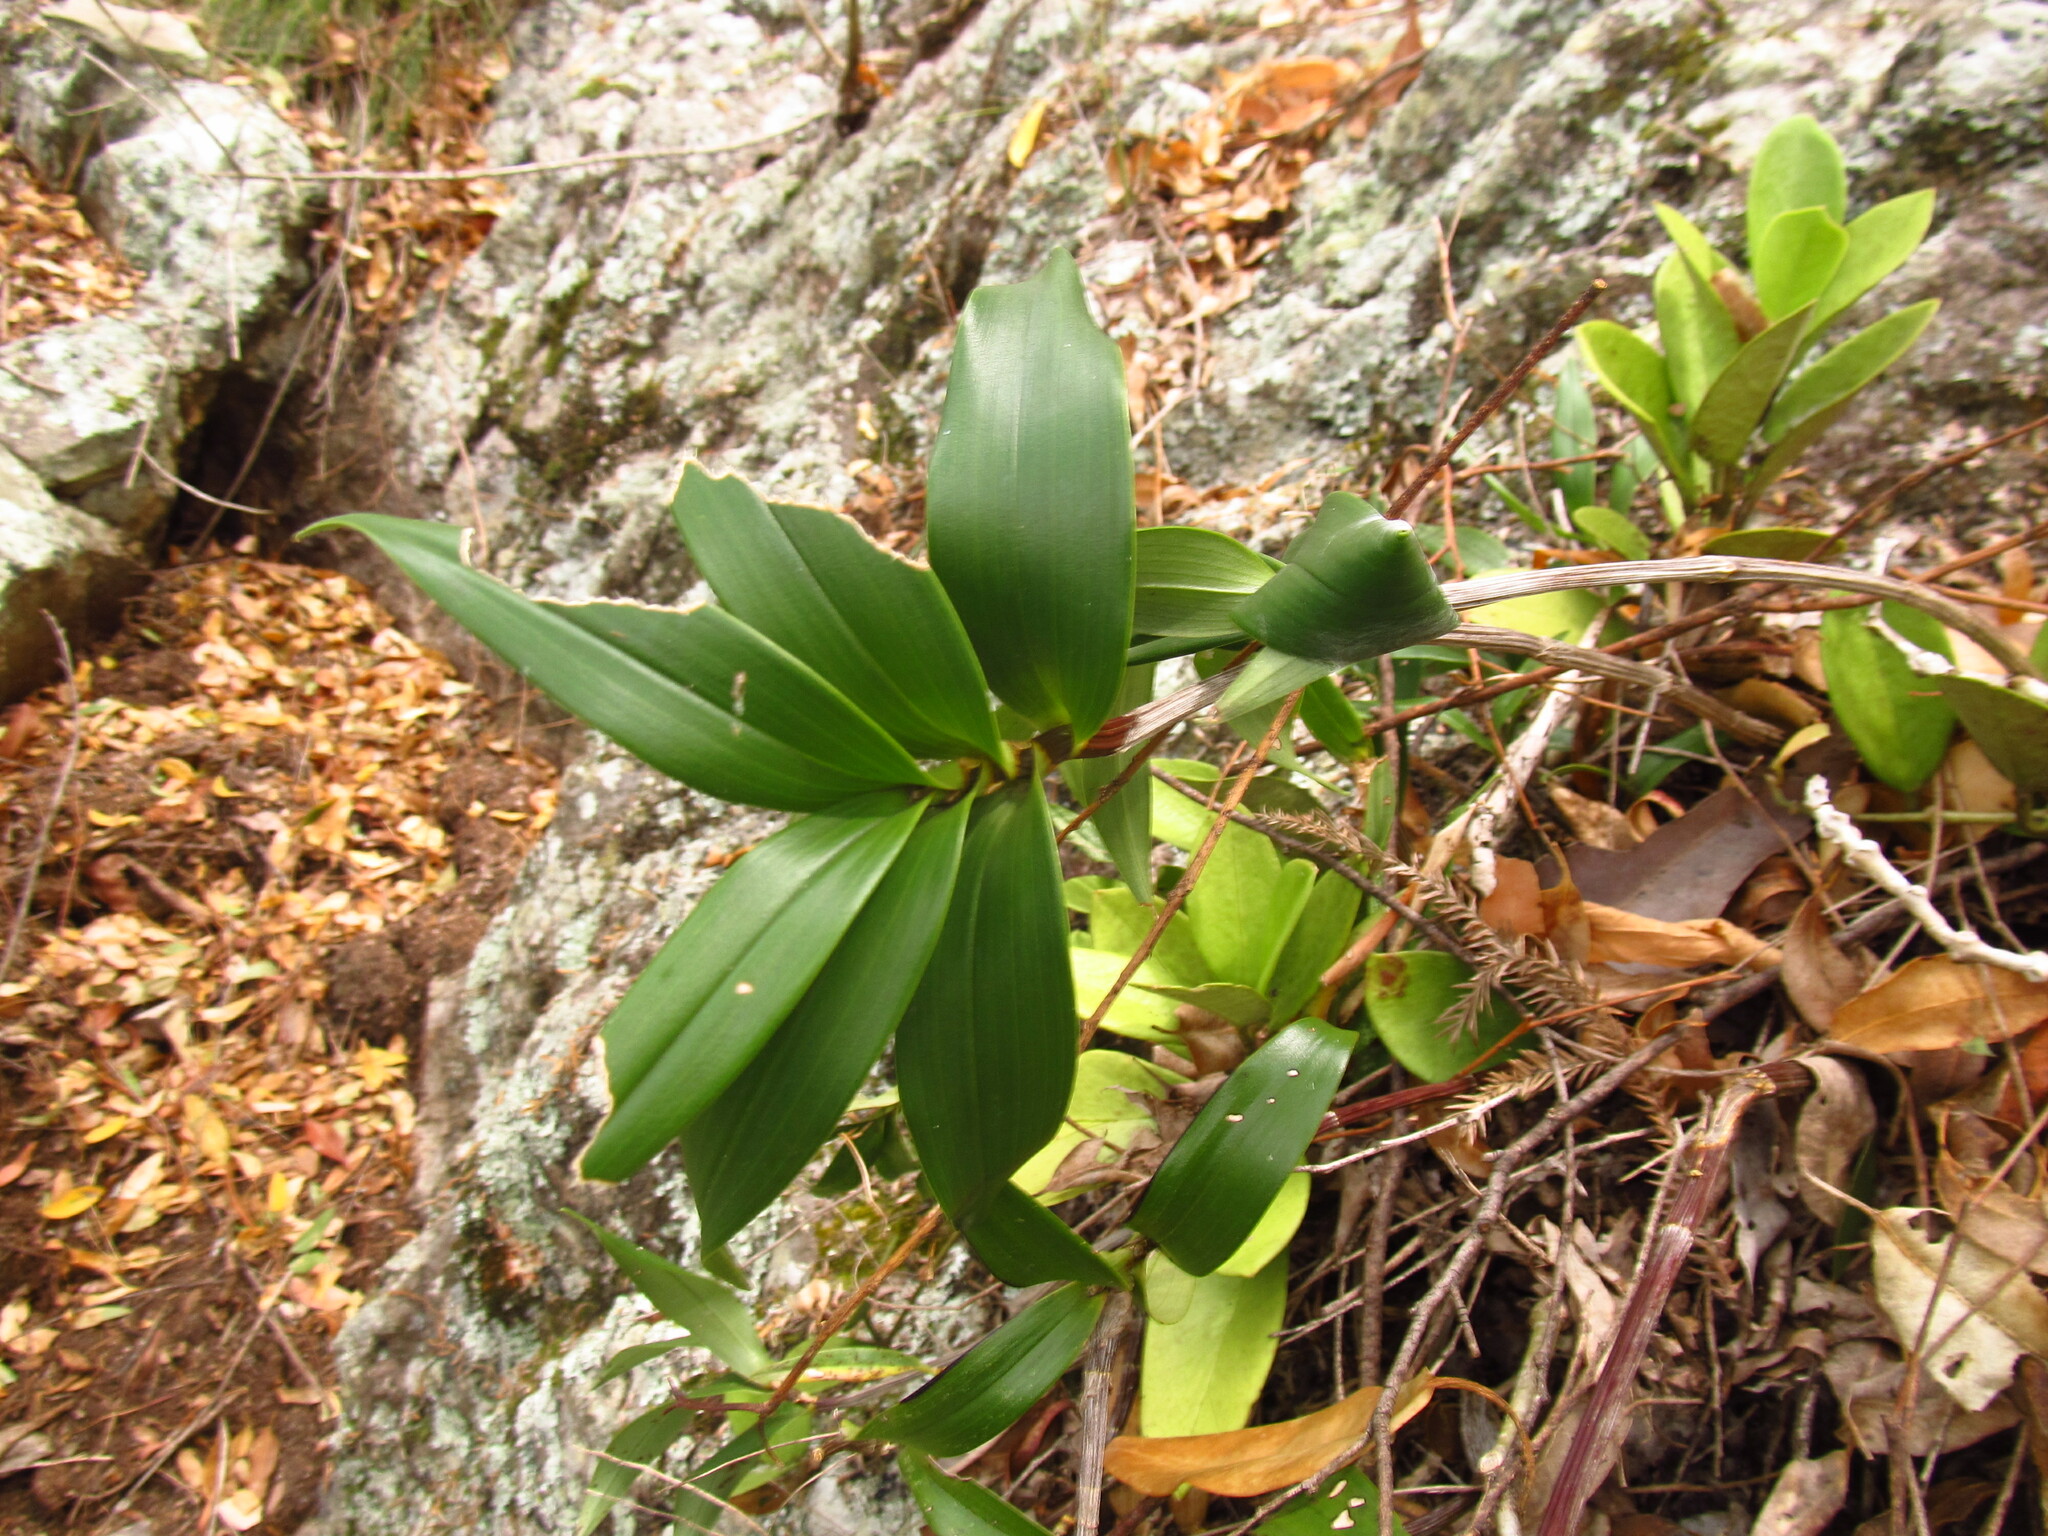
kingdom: Plantae
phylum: Tracheophyta
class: Liliopsida
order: Asparagales
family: Orchidaceae
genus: Dendrobium
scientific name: Dendrobium kingianum
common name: Pink rock orchid
